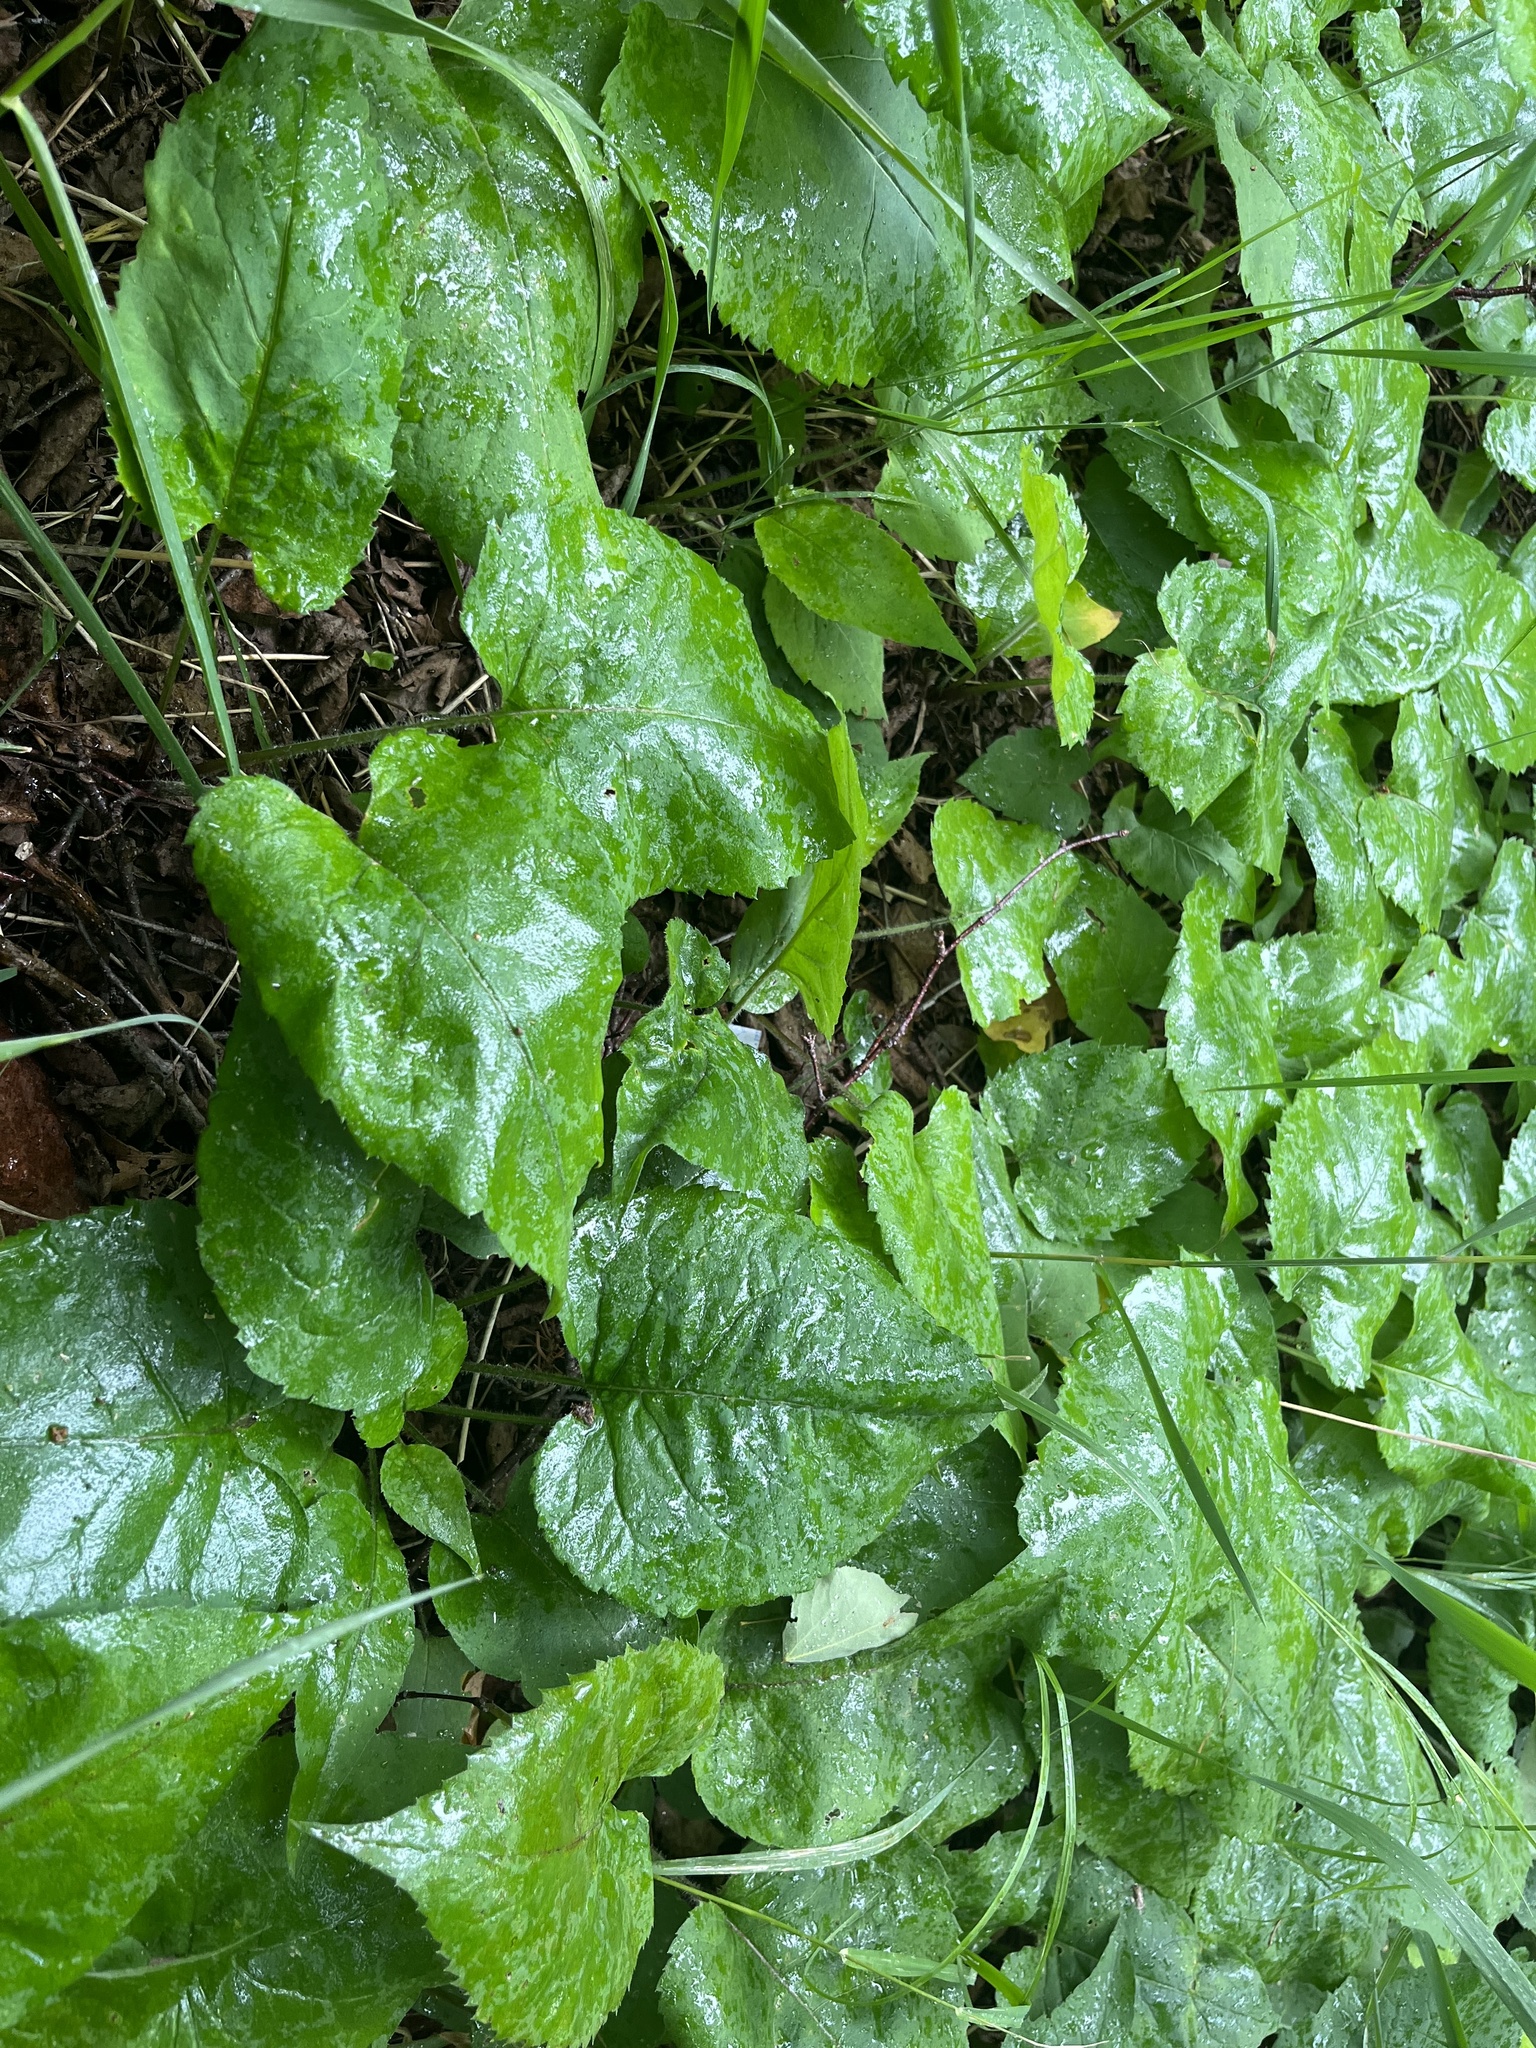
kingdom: Plantae
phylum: Tracheophyta
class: Magnoliopsida
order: Asterales
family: Asteraceae
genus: Eurybia
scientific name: Eurybia macrophylla
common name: Big-leaved aster
